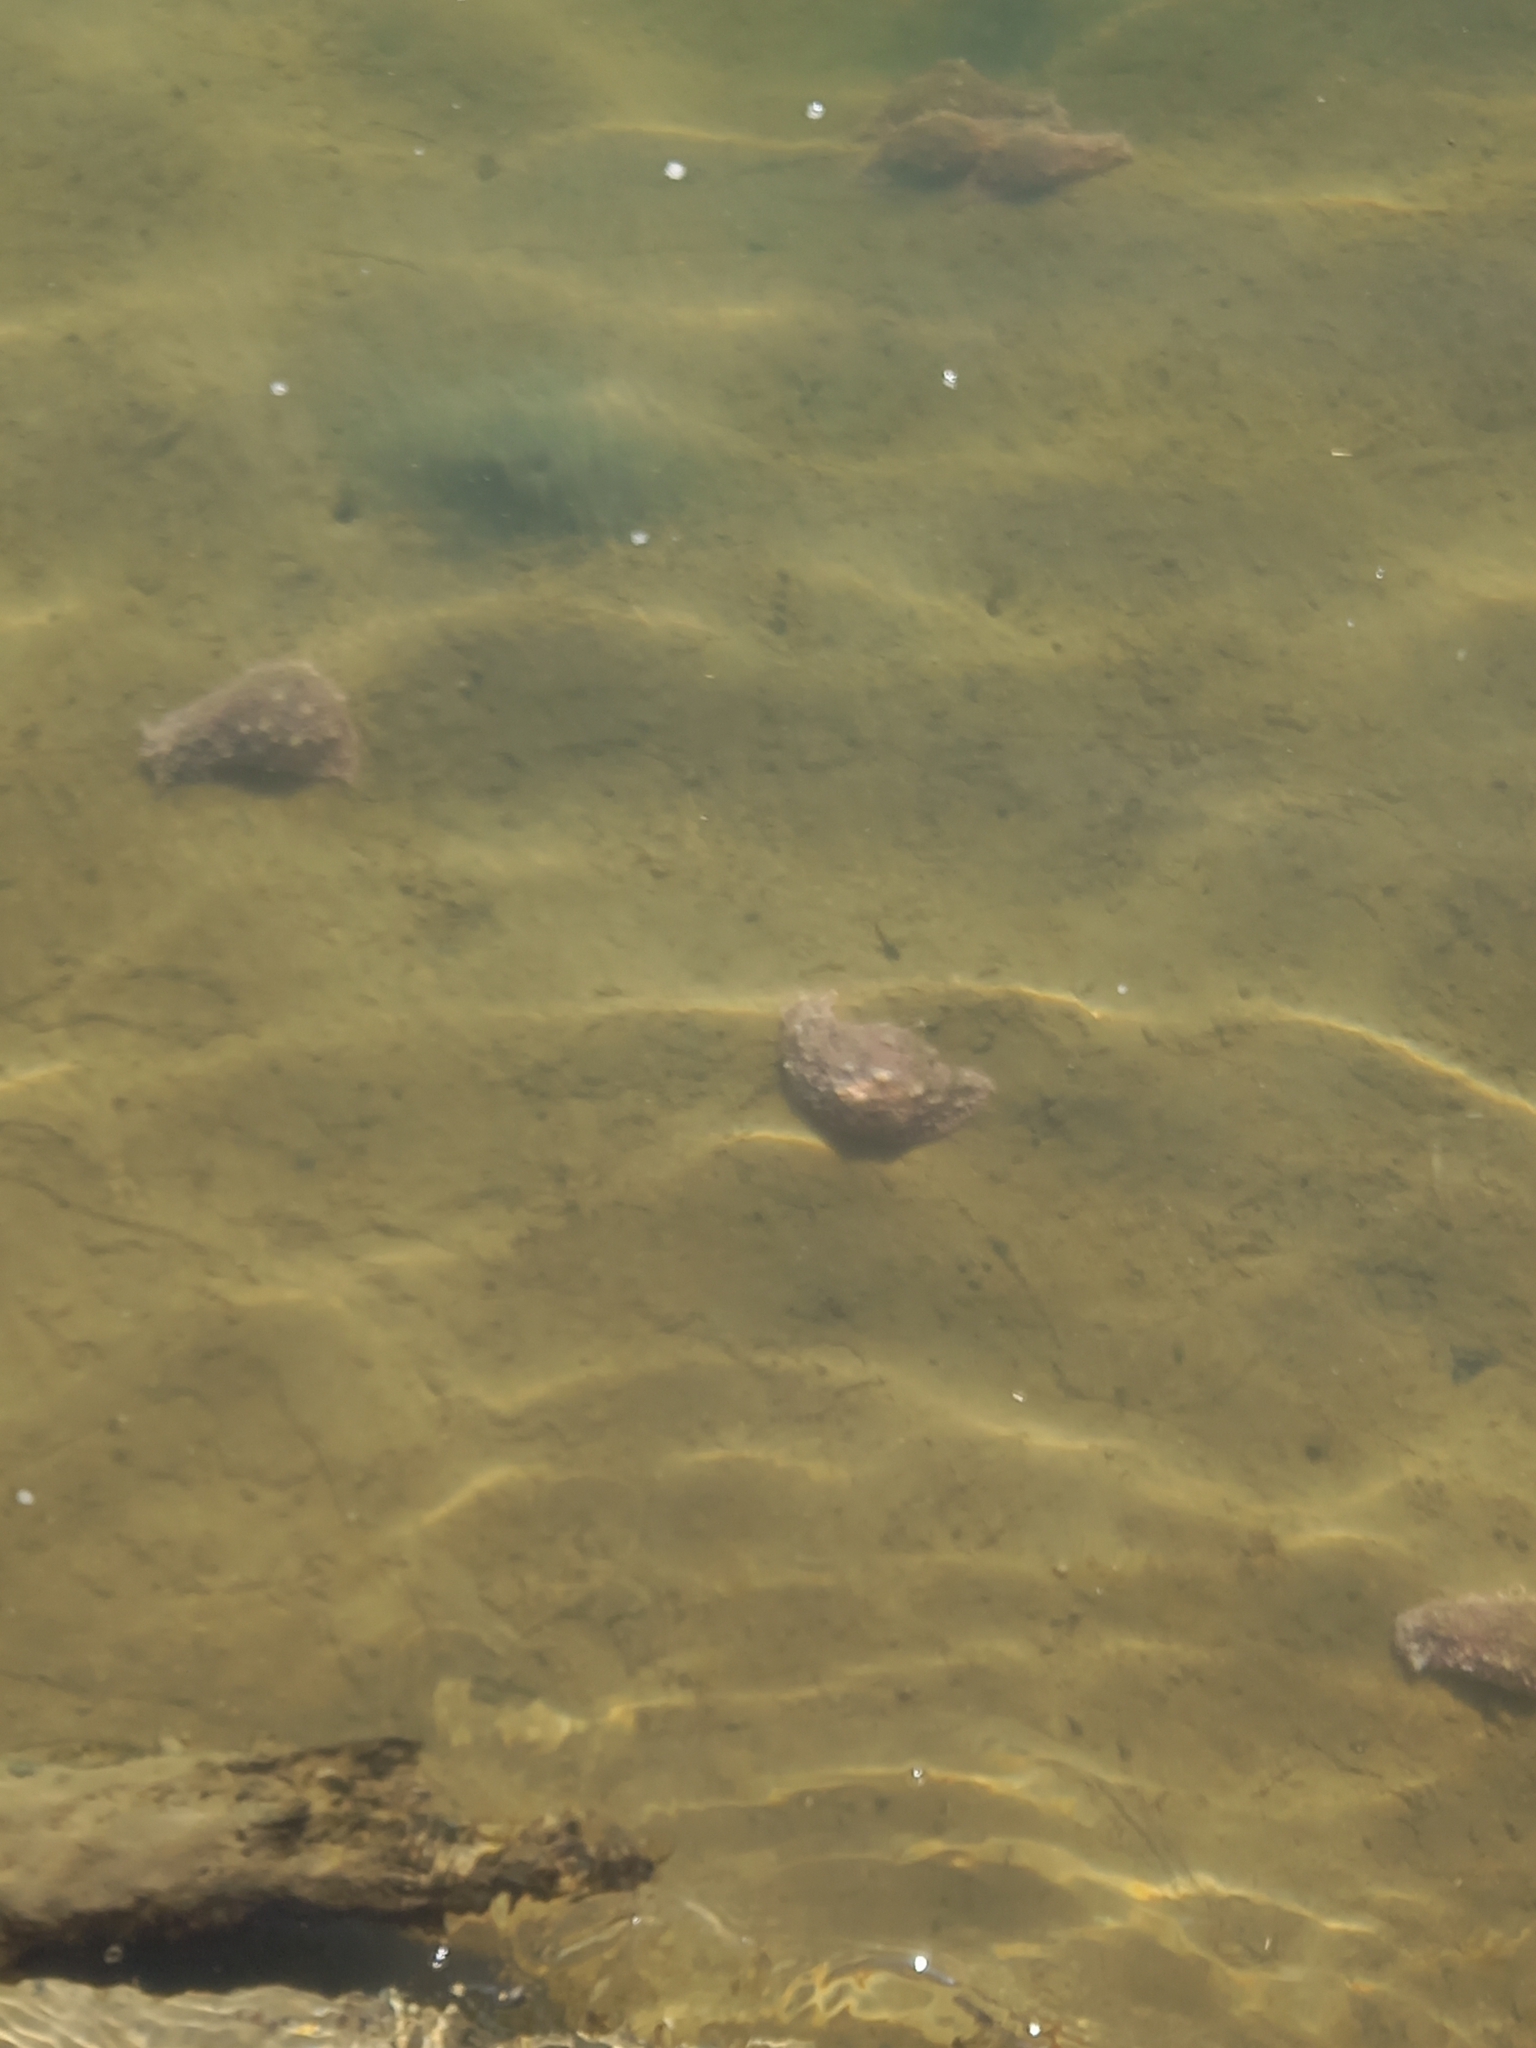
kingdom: Animalia
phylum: Mollusca
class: Gastropoda
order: Aplysiida
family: Aplysiidae
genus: Bursatella
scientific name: Bursatella leachii
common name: Shaggy sea hare
